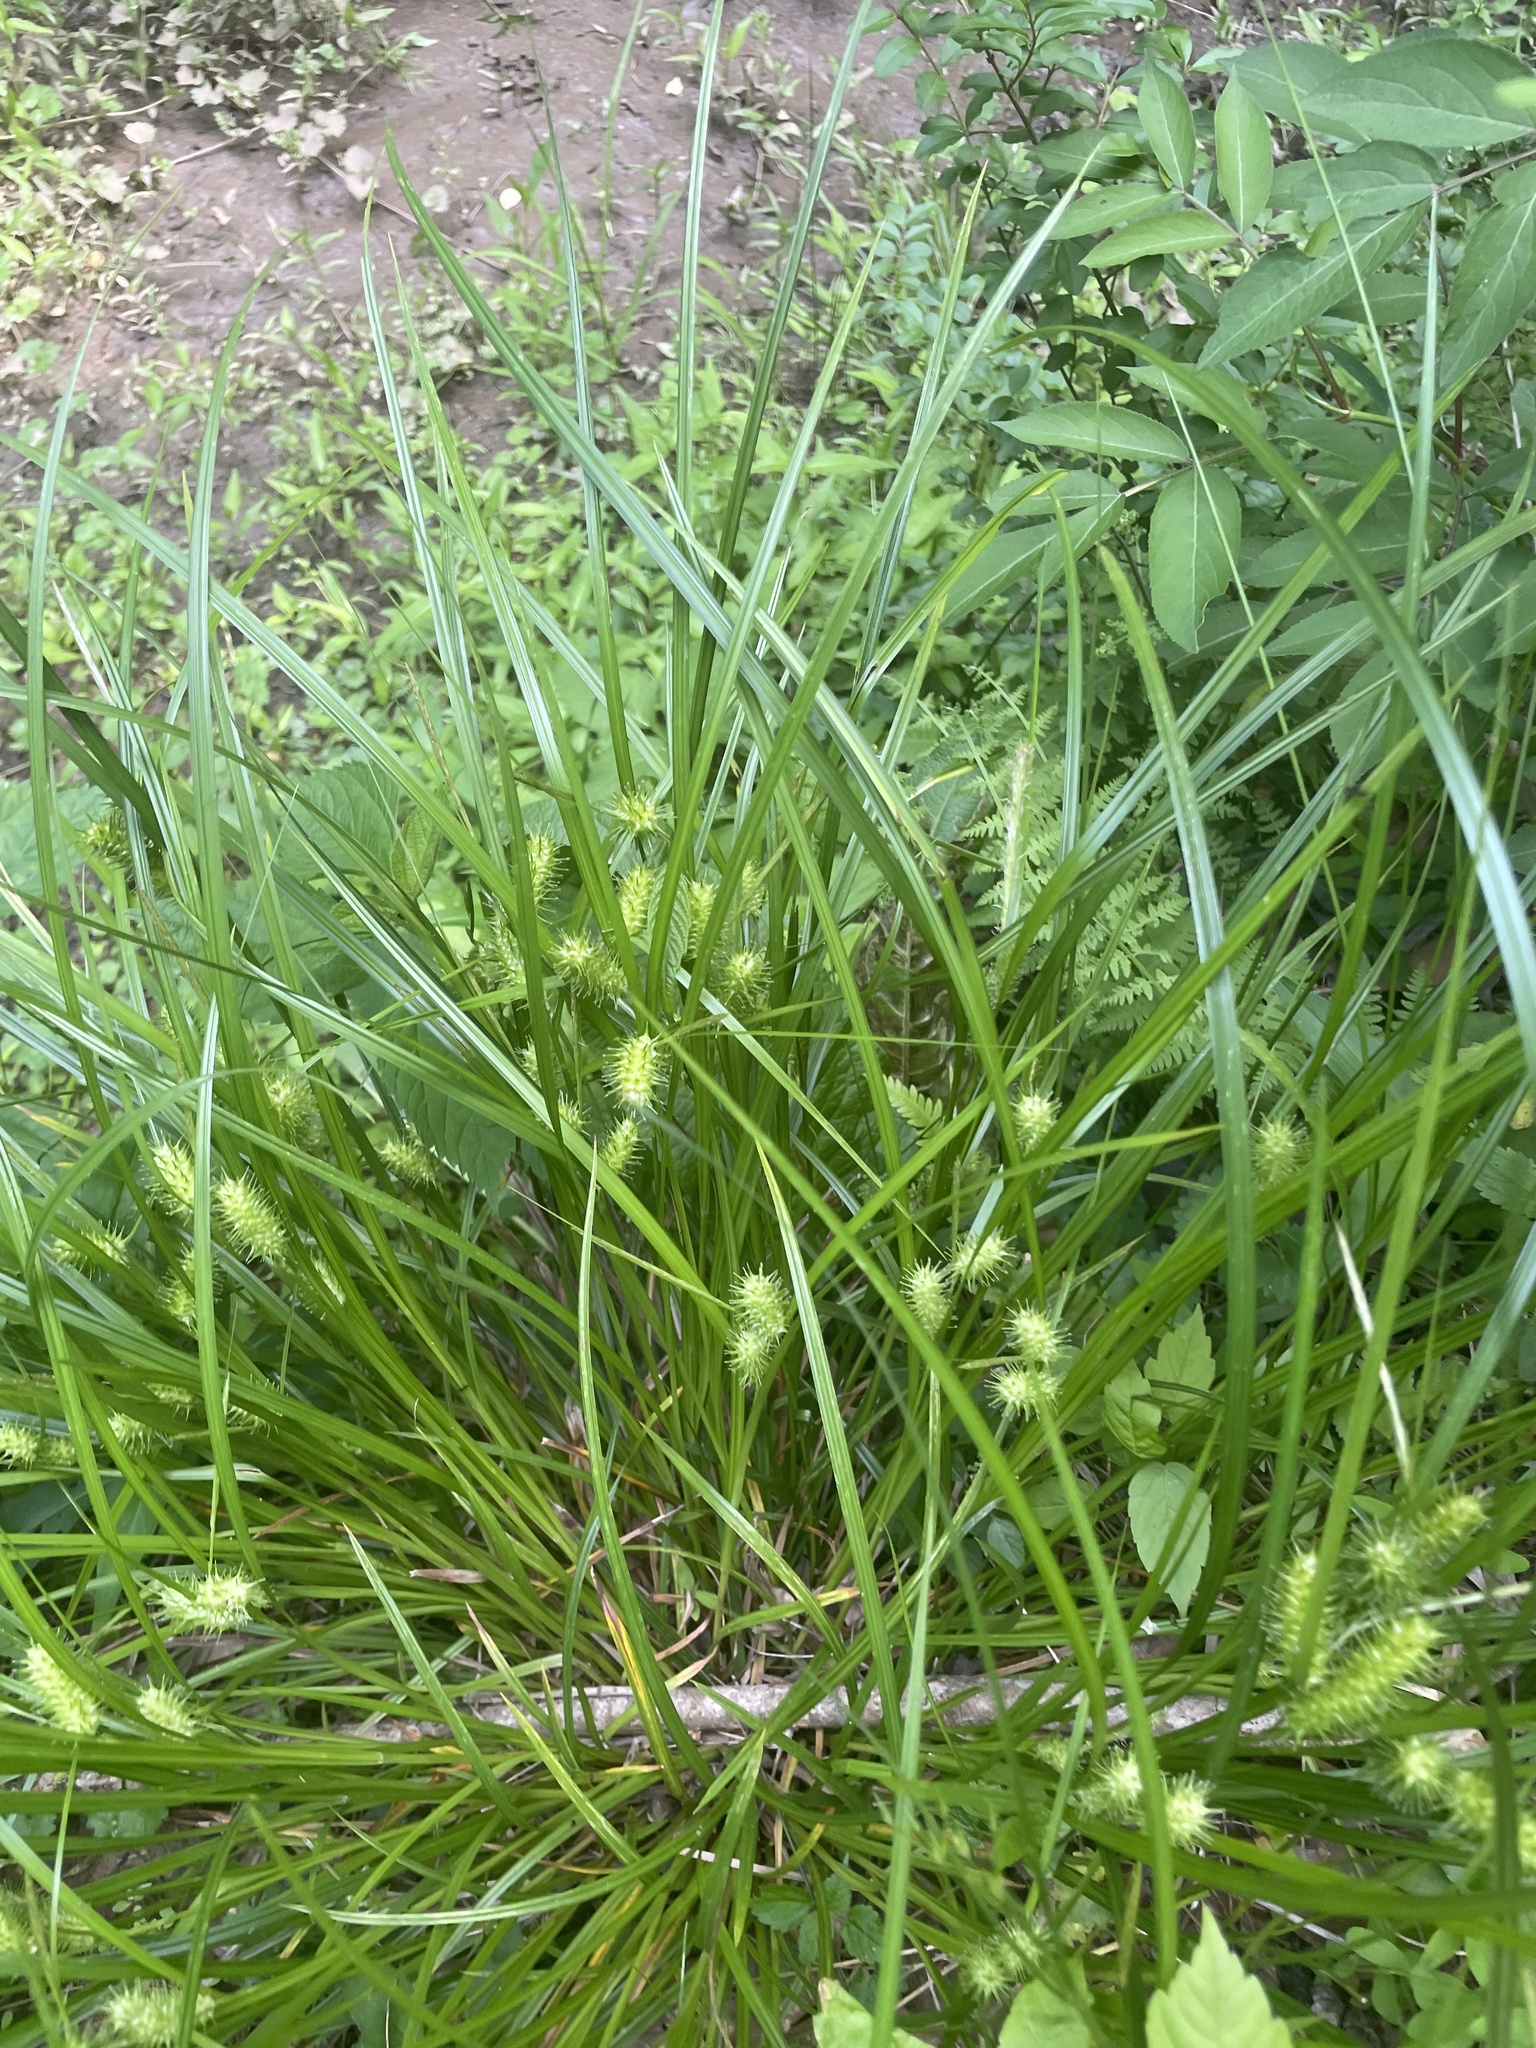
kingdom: Plantae
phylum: Tracheophyta
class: Liliopsida
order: Poales
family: Cyperaceae
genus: Carex
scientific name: Carex lurida
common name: Sallow sedge
